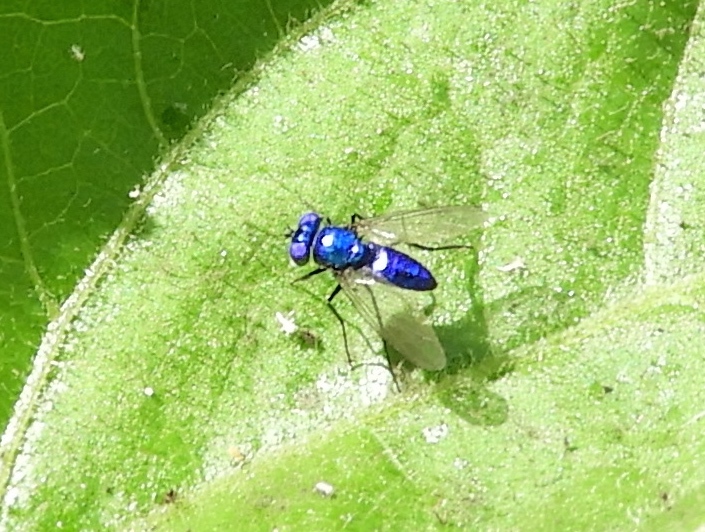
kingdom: Animalia
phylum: Arthropoda
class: Insecta
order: Diptera
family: Dolichopodidae
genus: Condylostylus
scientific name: Condylostylus mundus
